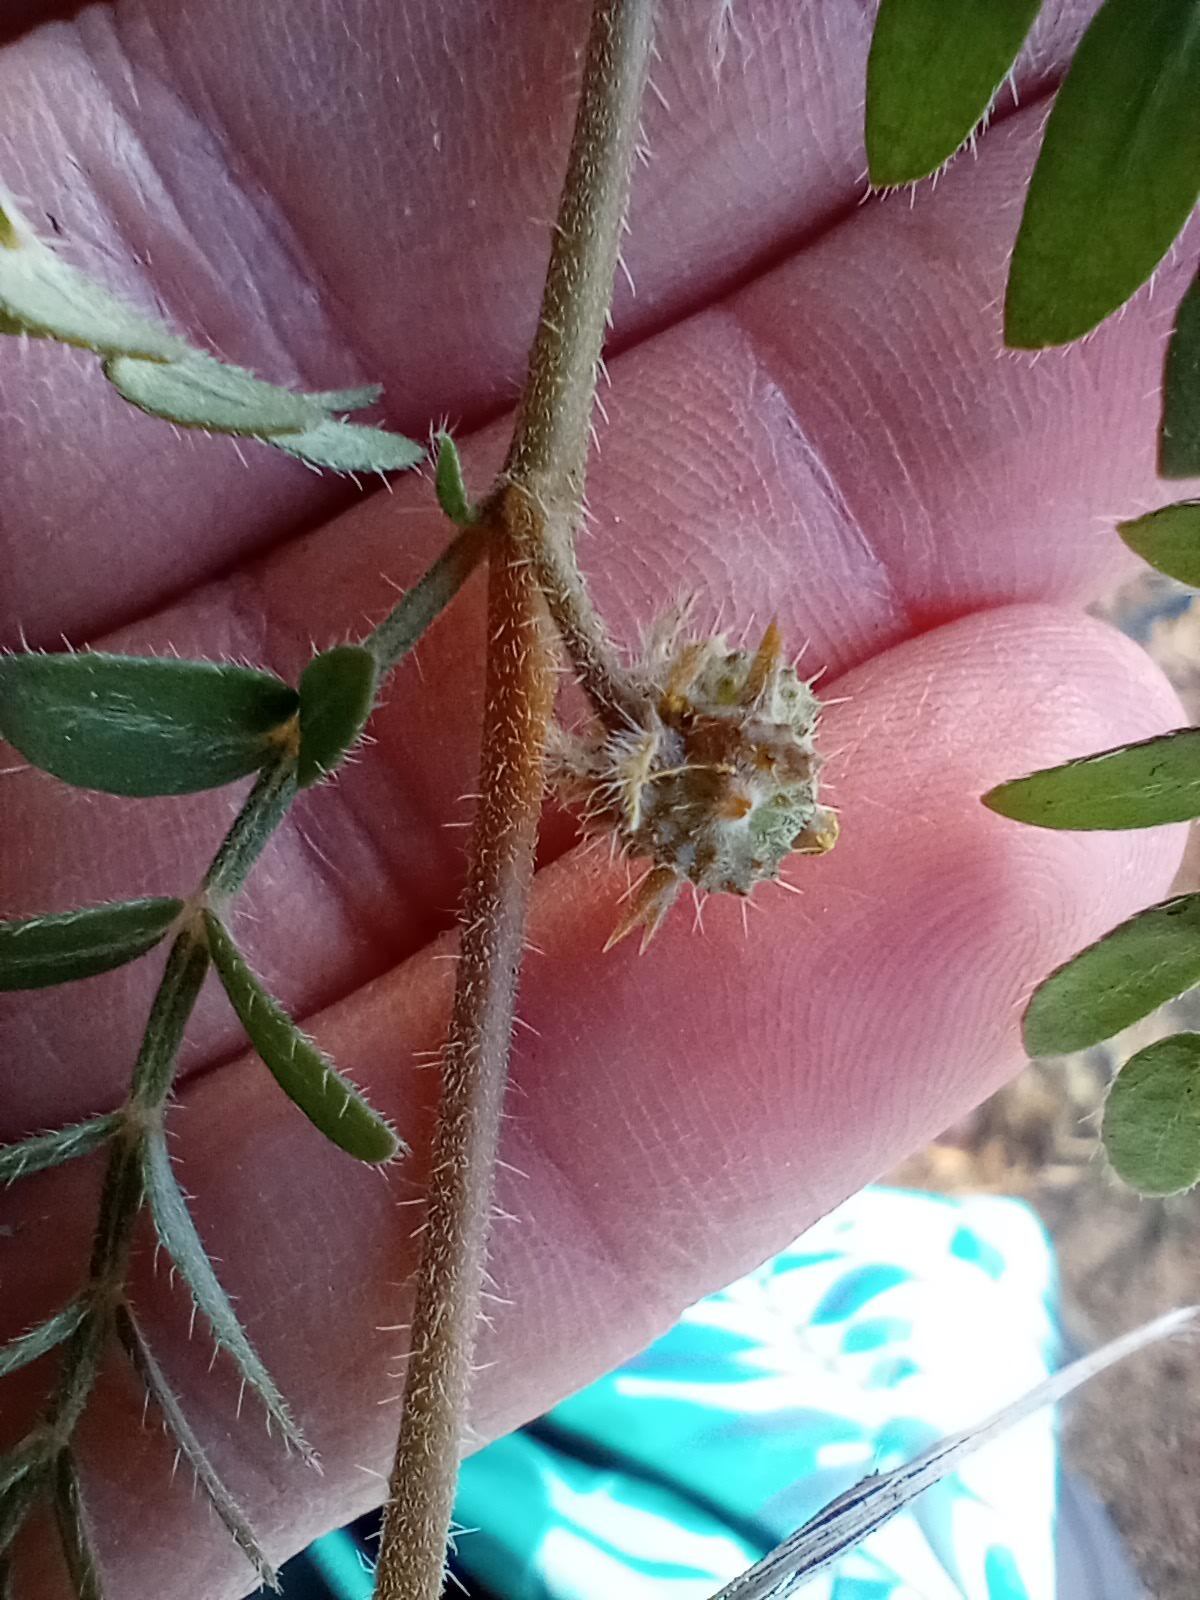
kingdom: Plantae
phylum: Tracheophyta
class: Magnoliopsida
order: Zygophyllales
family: Zygophyllaceae
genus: Tribulus
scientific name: Tribulus terrestris
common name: Puncturevine
